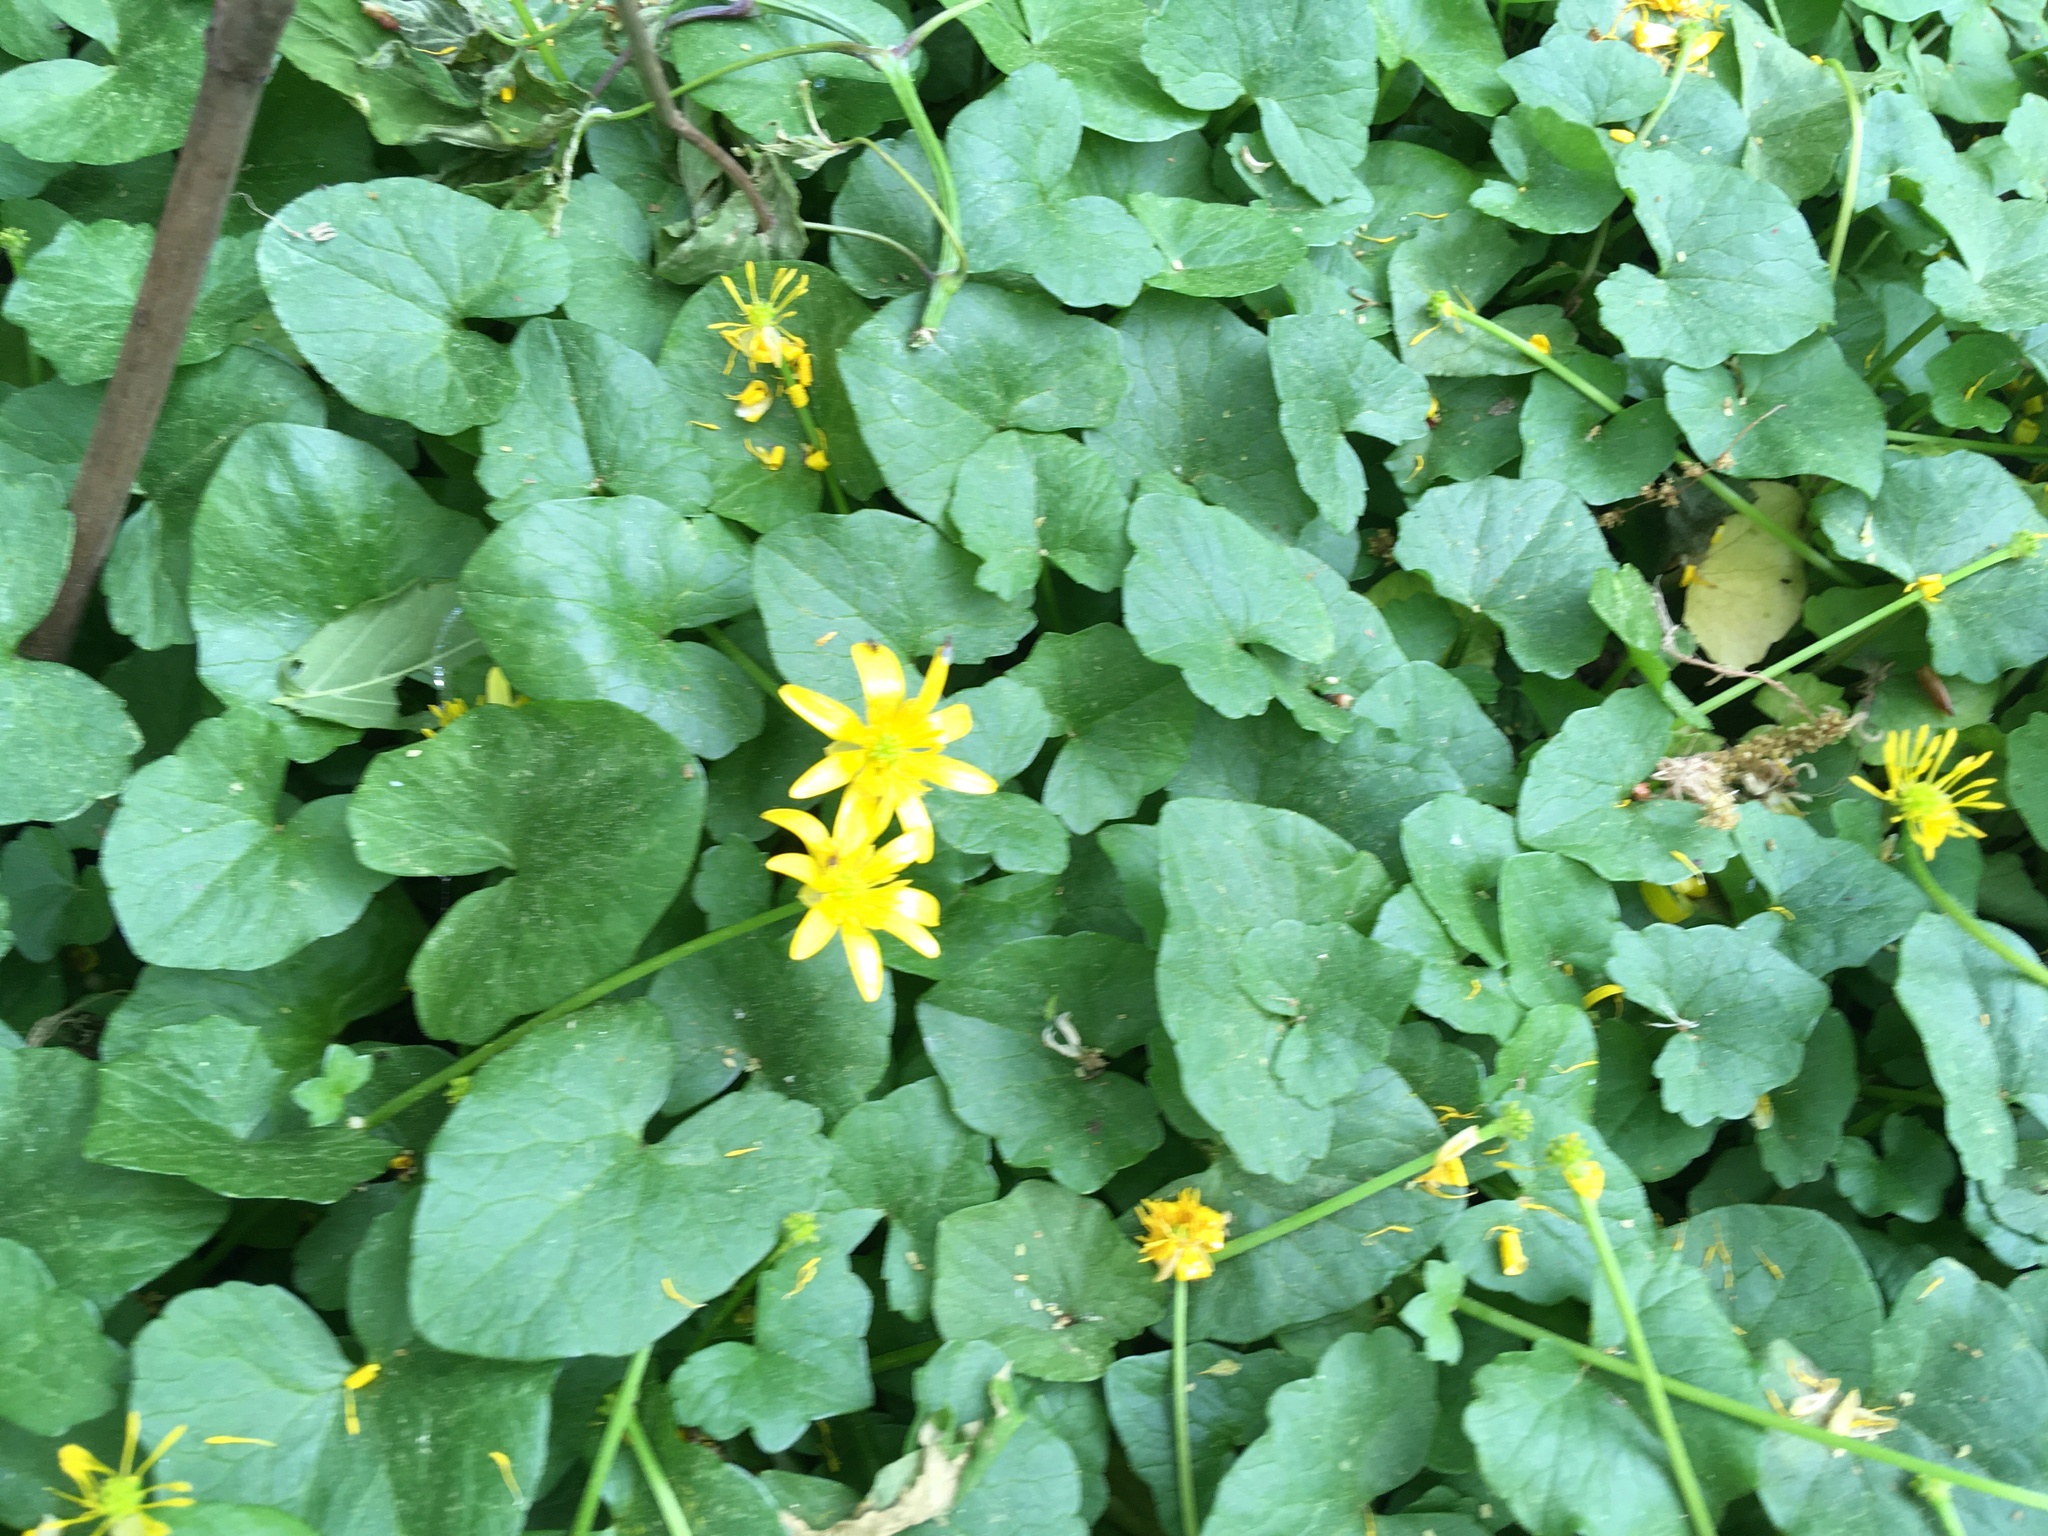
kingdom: Plantae
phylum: Tracheophyta
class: Magnoliopsida
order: Ranunculales
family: Ranunculaceae
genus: Ficaria
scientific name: Ficaria verna
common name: Lesser celandine
